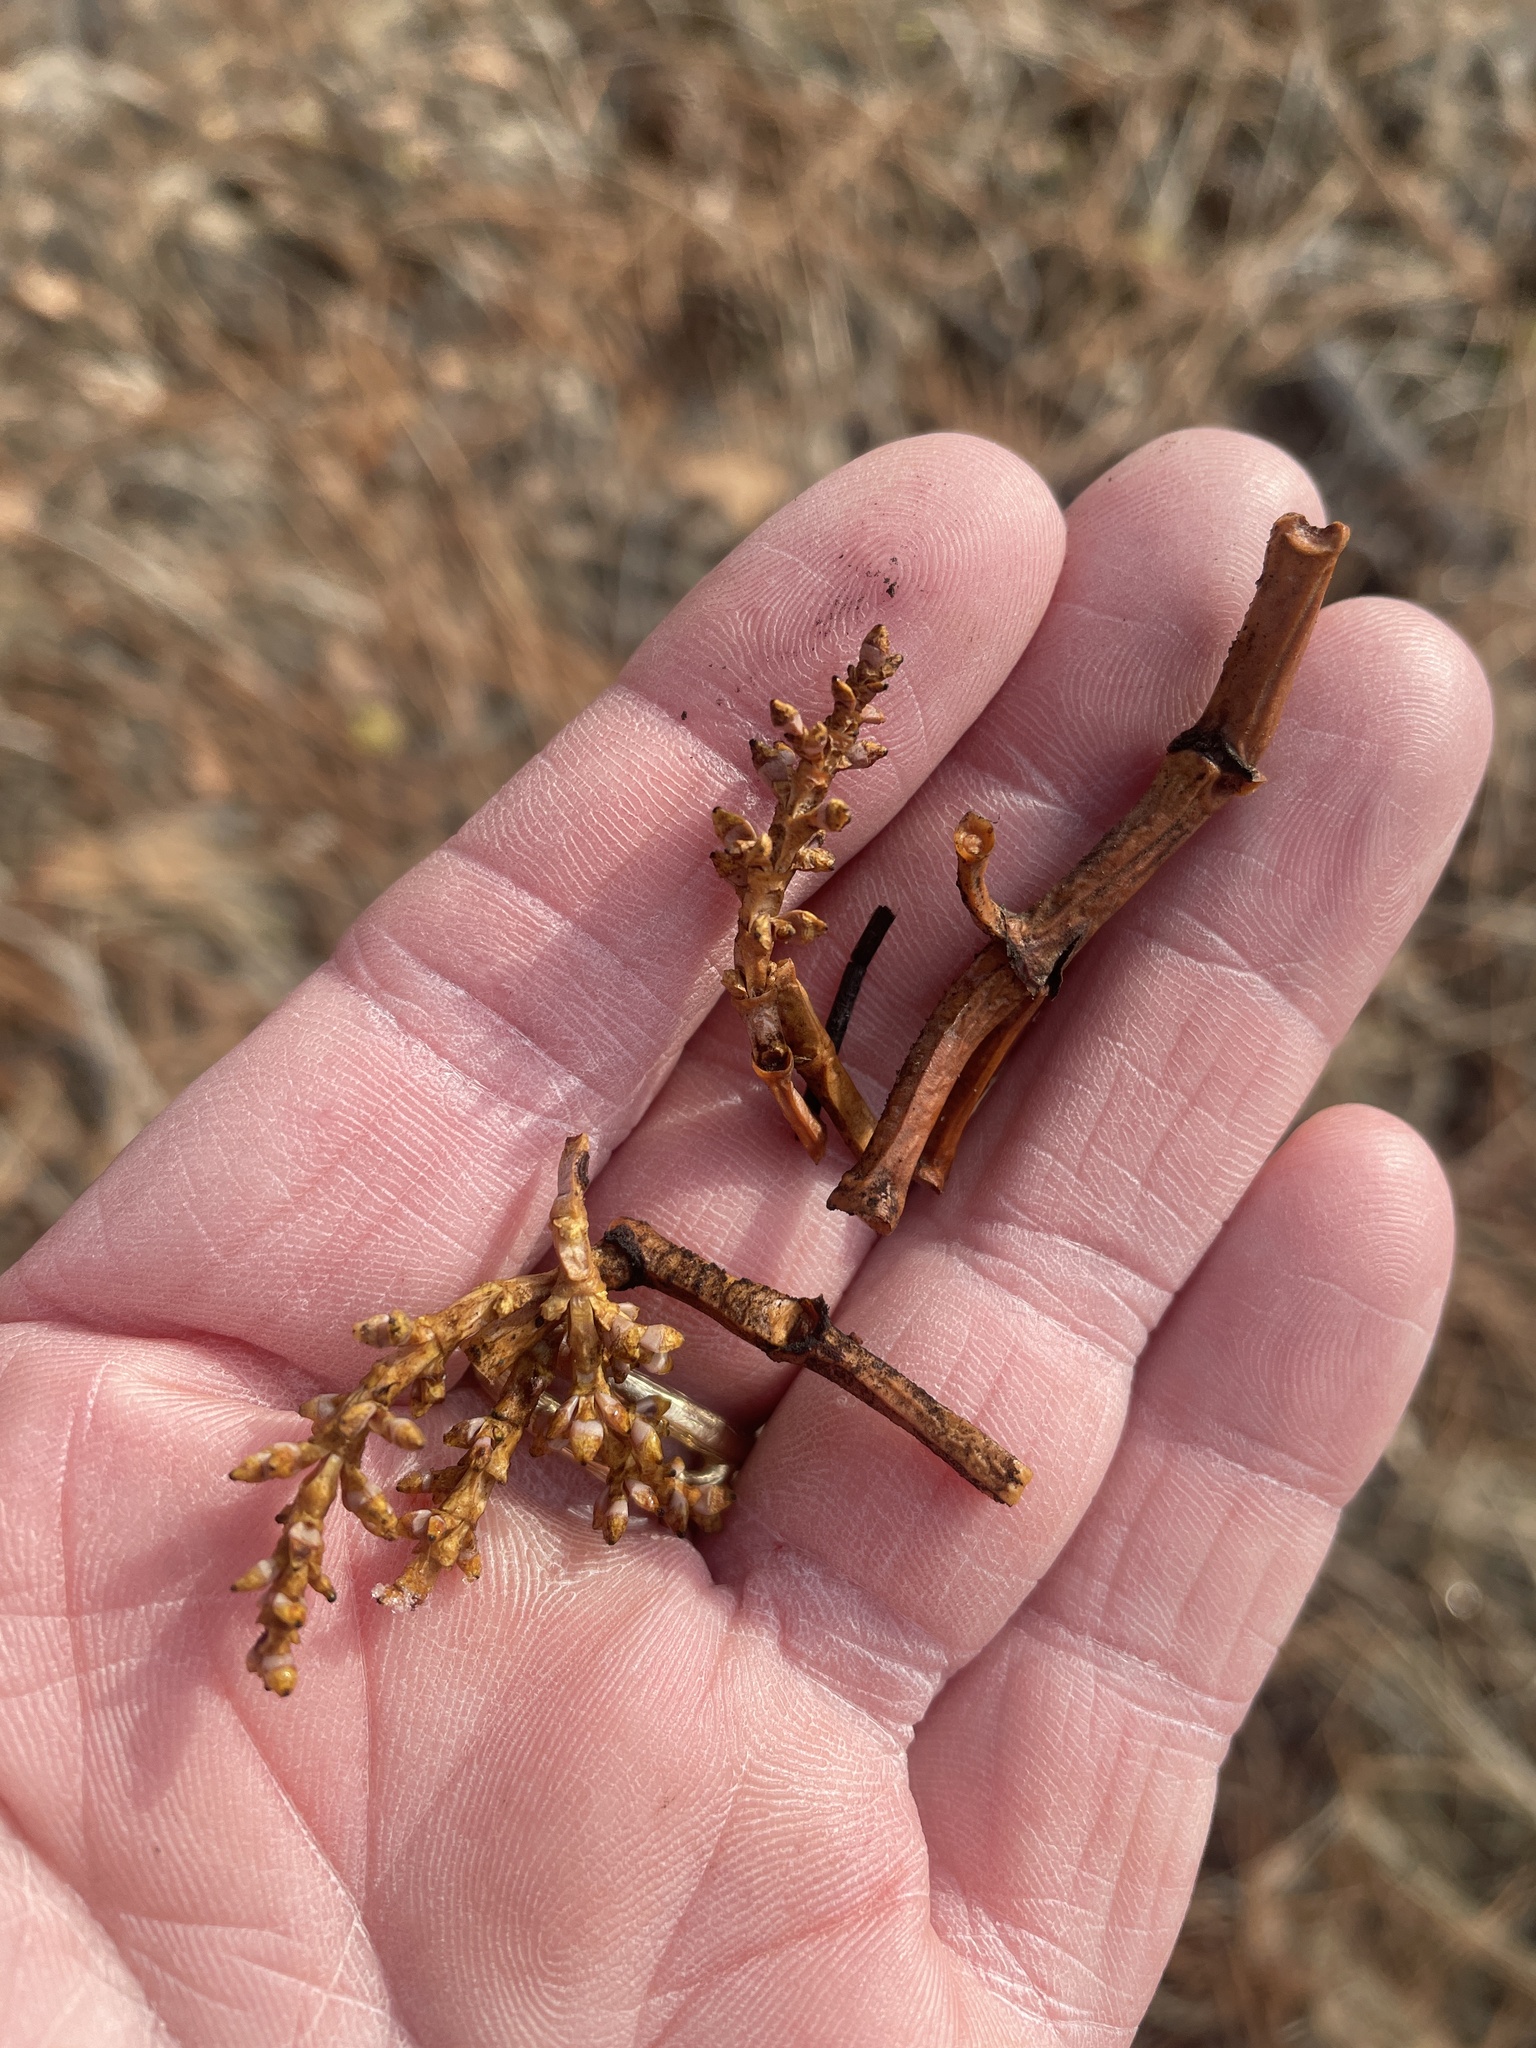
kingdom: Plantae
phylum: Tracheophyta
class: Magnoliopsida
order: Santalales
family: Viscaceae
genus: Arceuthobium
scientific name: Arceuthobium campylopodum
